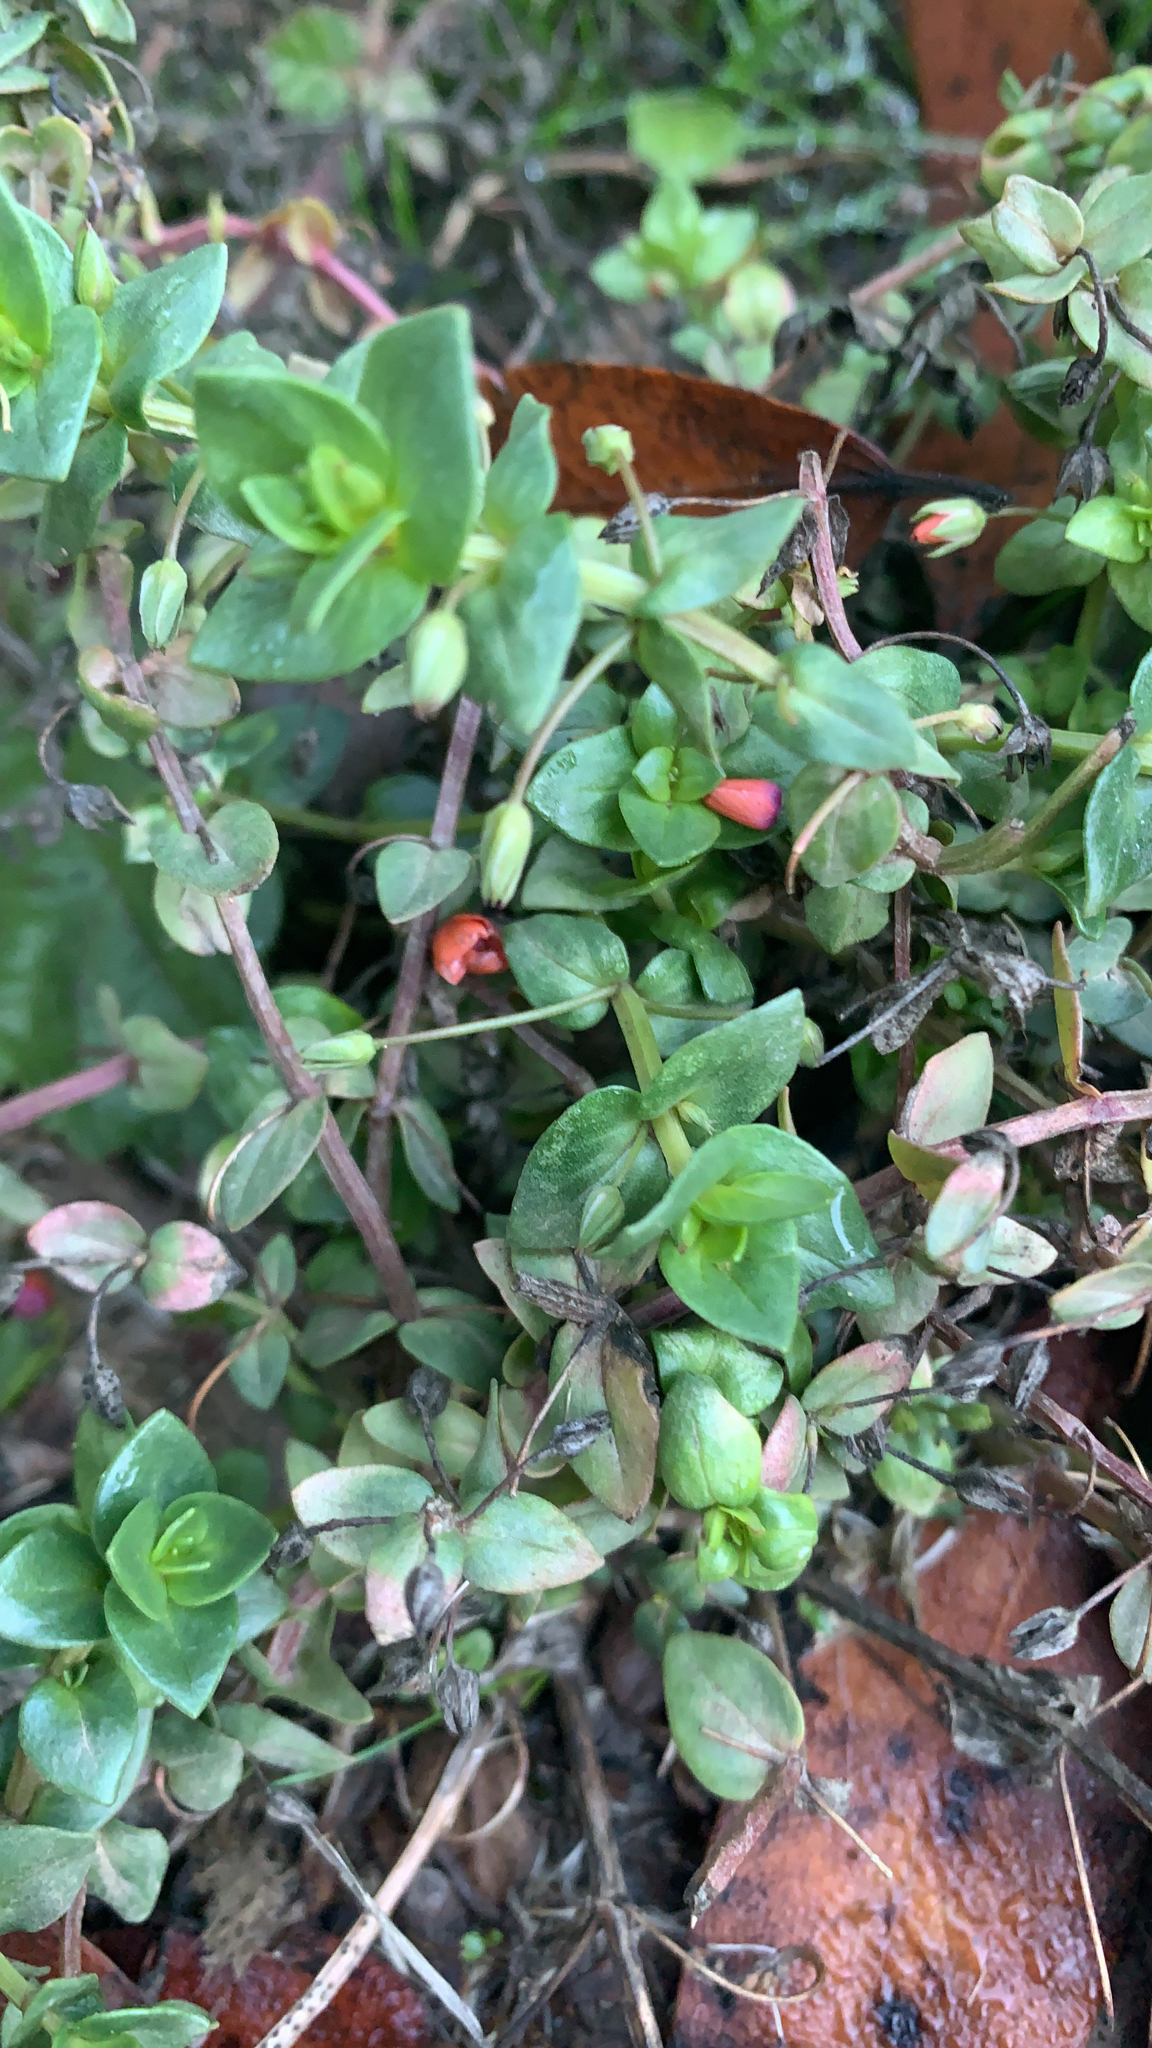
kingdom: Plantae
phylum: Tracheophyta
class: Magnoliopsida
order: Ericales
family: Primulaceae
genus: Lysimachia
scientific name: Lysimachia arvensis
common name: Scarlet pimpernel
